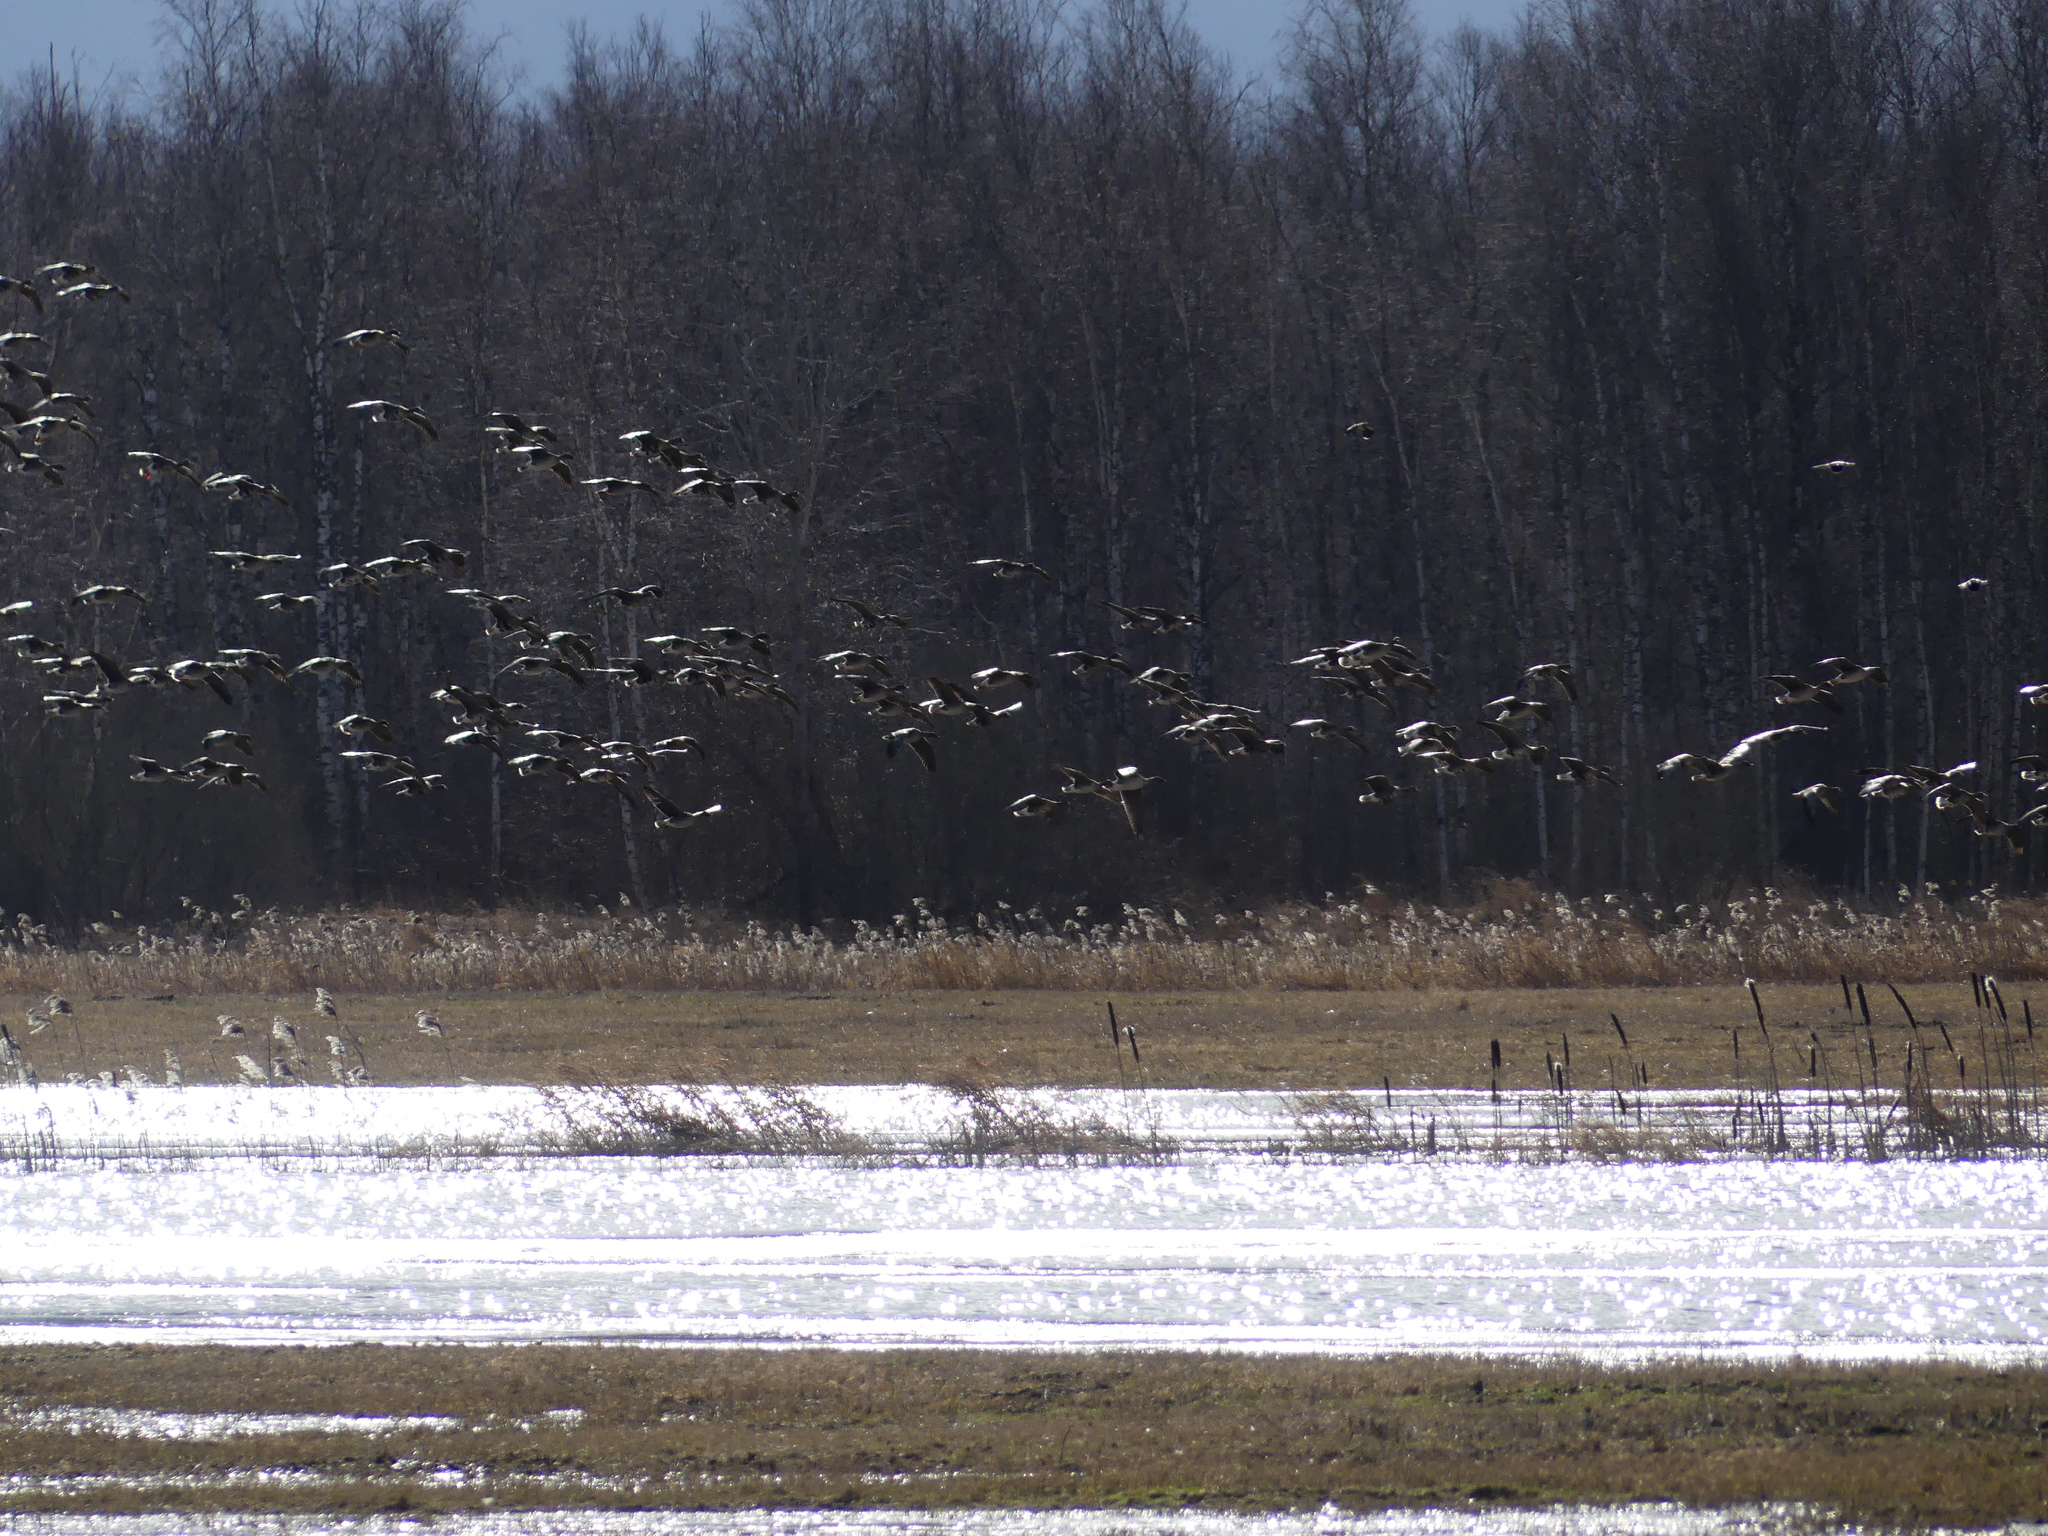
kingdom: Animalia
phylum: Chordata
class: Aves
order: Anseriformes
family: Anatidae
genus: Anser
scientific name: Anser albifrons
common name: Greater white-fronted goose
